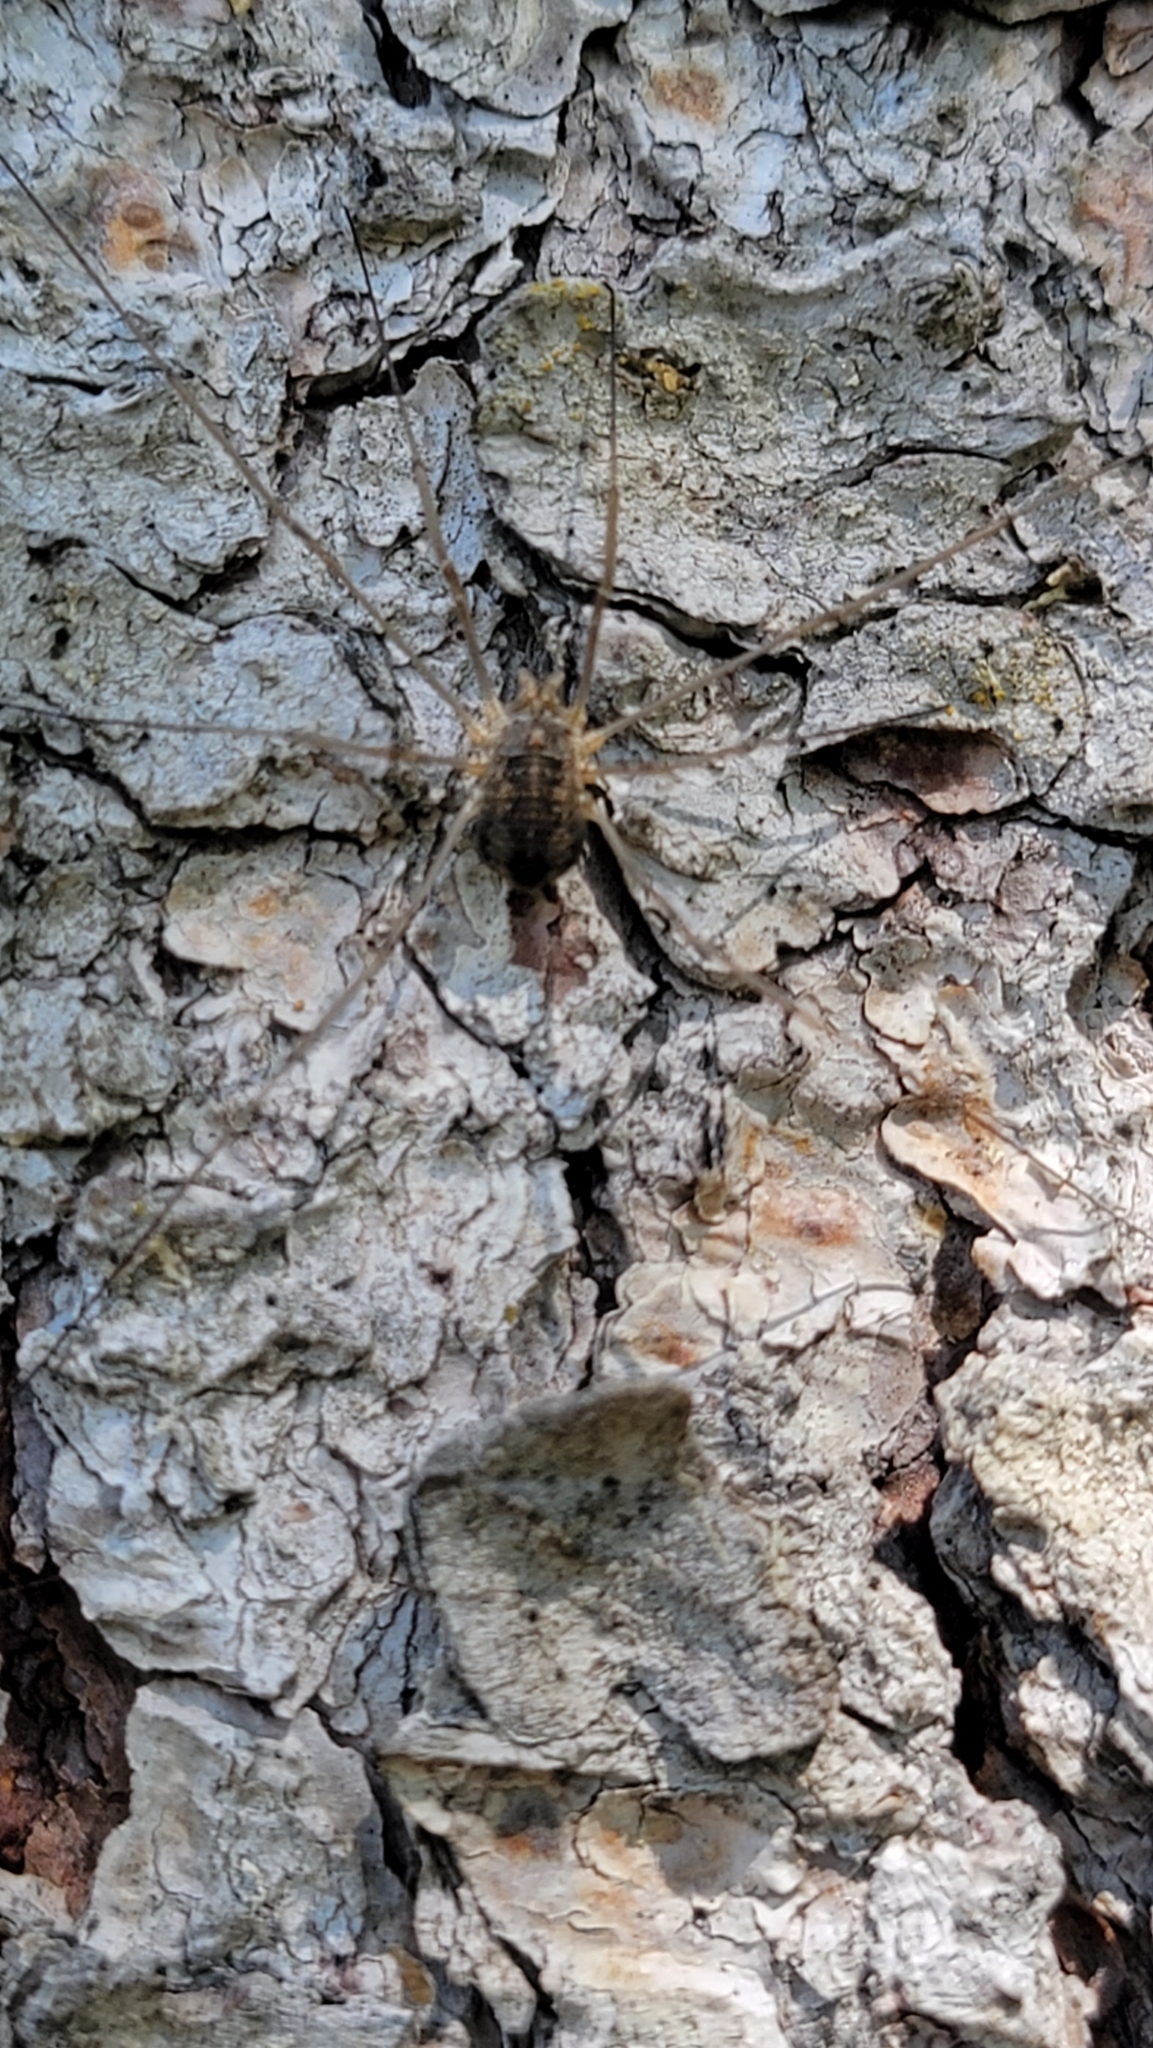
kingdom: Animalia
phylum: Arthropoda
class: Arachnida
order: Opiliones
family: Phalangiidae
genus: Phalangium
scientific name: Phalangium opilio
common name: Daddy longleg
